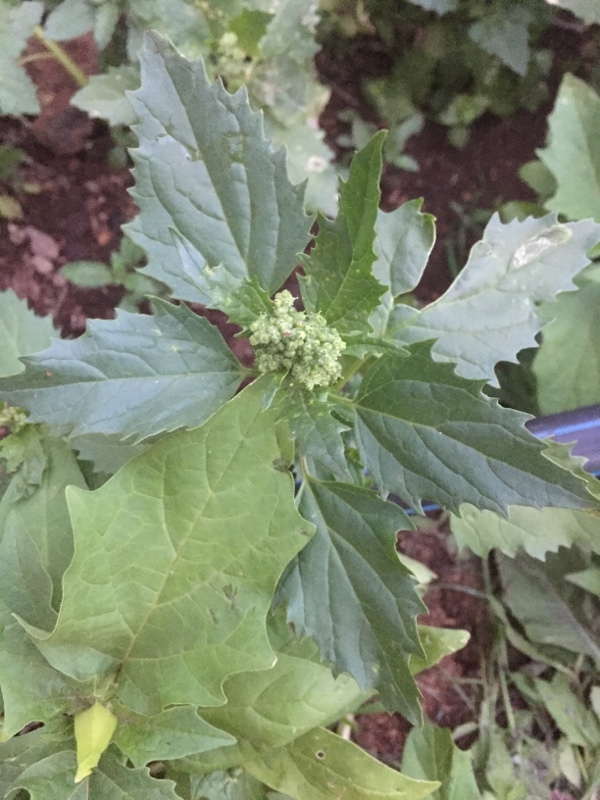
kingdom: Plantae
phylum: Tracheophyta
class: Magnoliopsida
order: Caryophyllales
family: Amaranthaceae
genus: Chenopodiastrum
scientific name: Chenopodiastrum murale
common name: Sowbane
